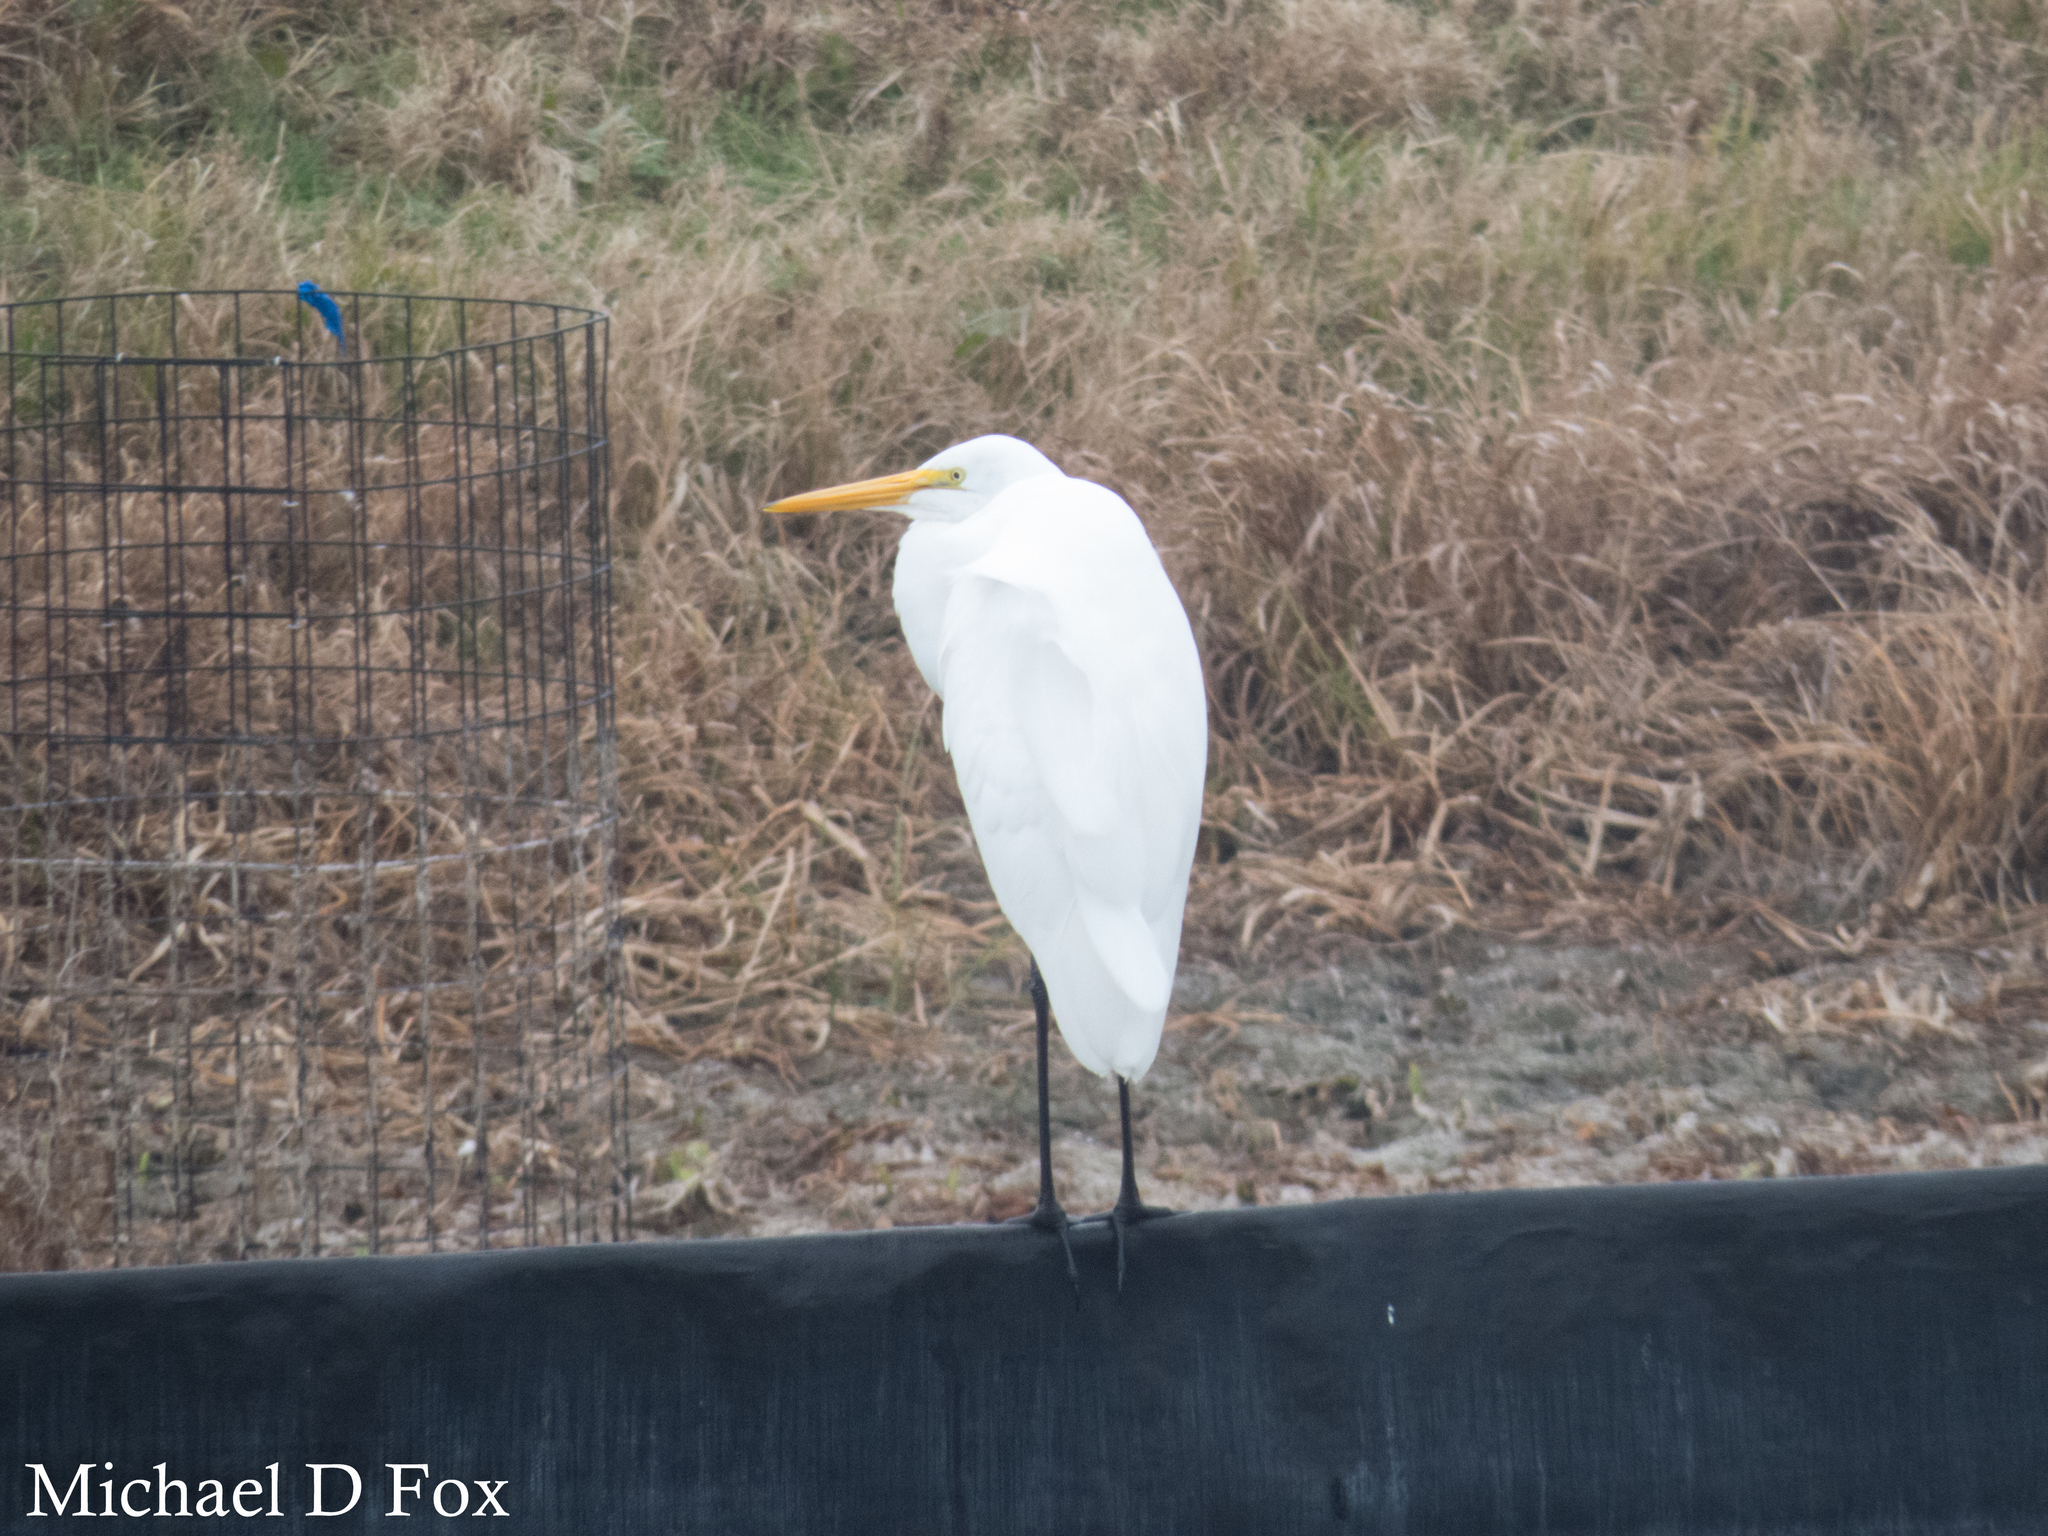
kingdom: Animalia
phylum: Chordata
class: Aves
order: Pelecaniformes
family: Ardeidae
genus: Ardea
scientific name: Ardea alba
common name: Great egret
